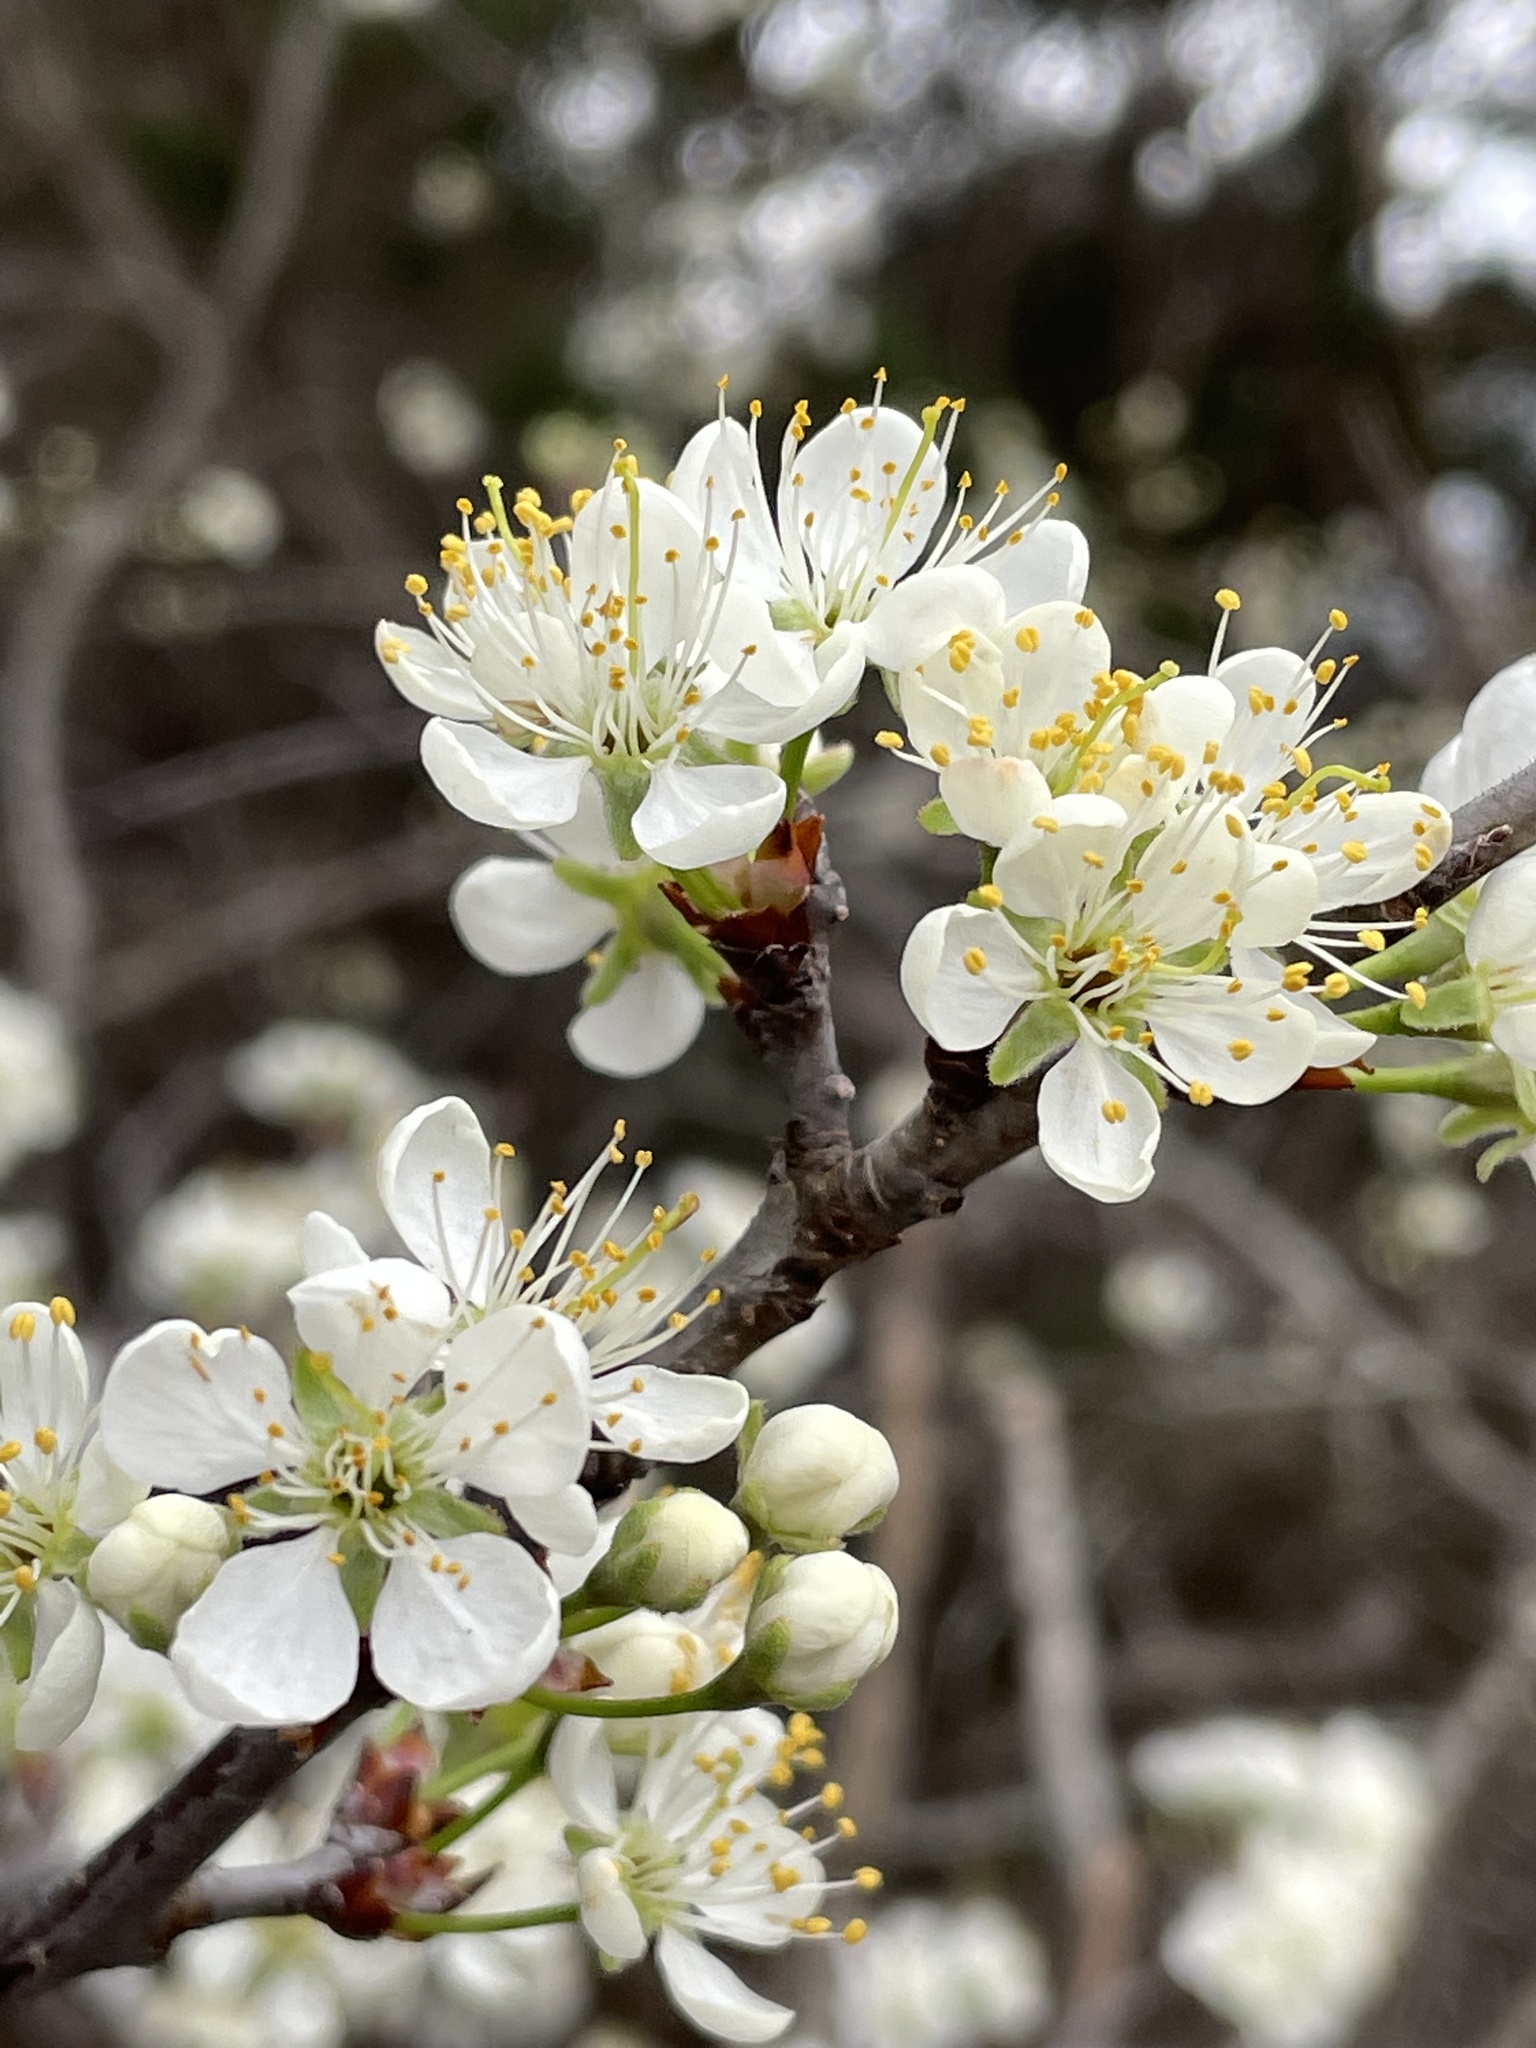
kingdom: Plantae
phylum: Tracheophyta
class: Magnoliopsida
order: Rosales
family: Rosaceae
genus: Prunus
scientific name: Prunus mexicana
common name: Mexican plum
